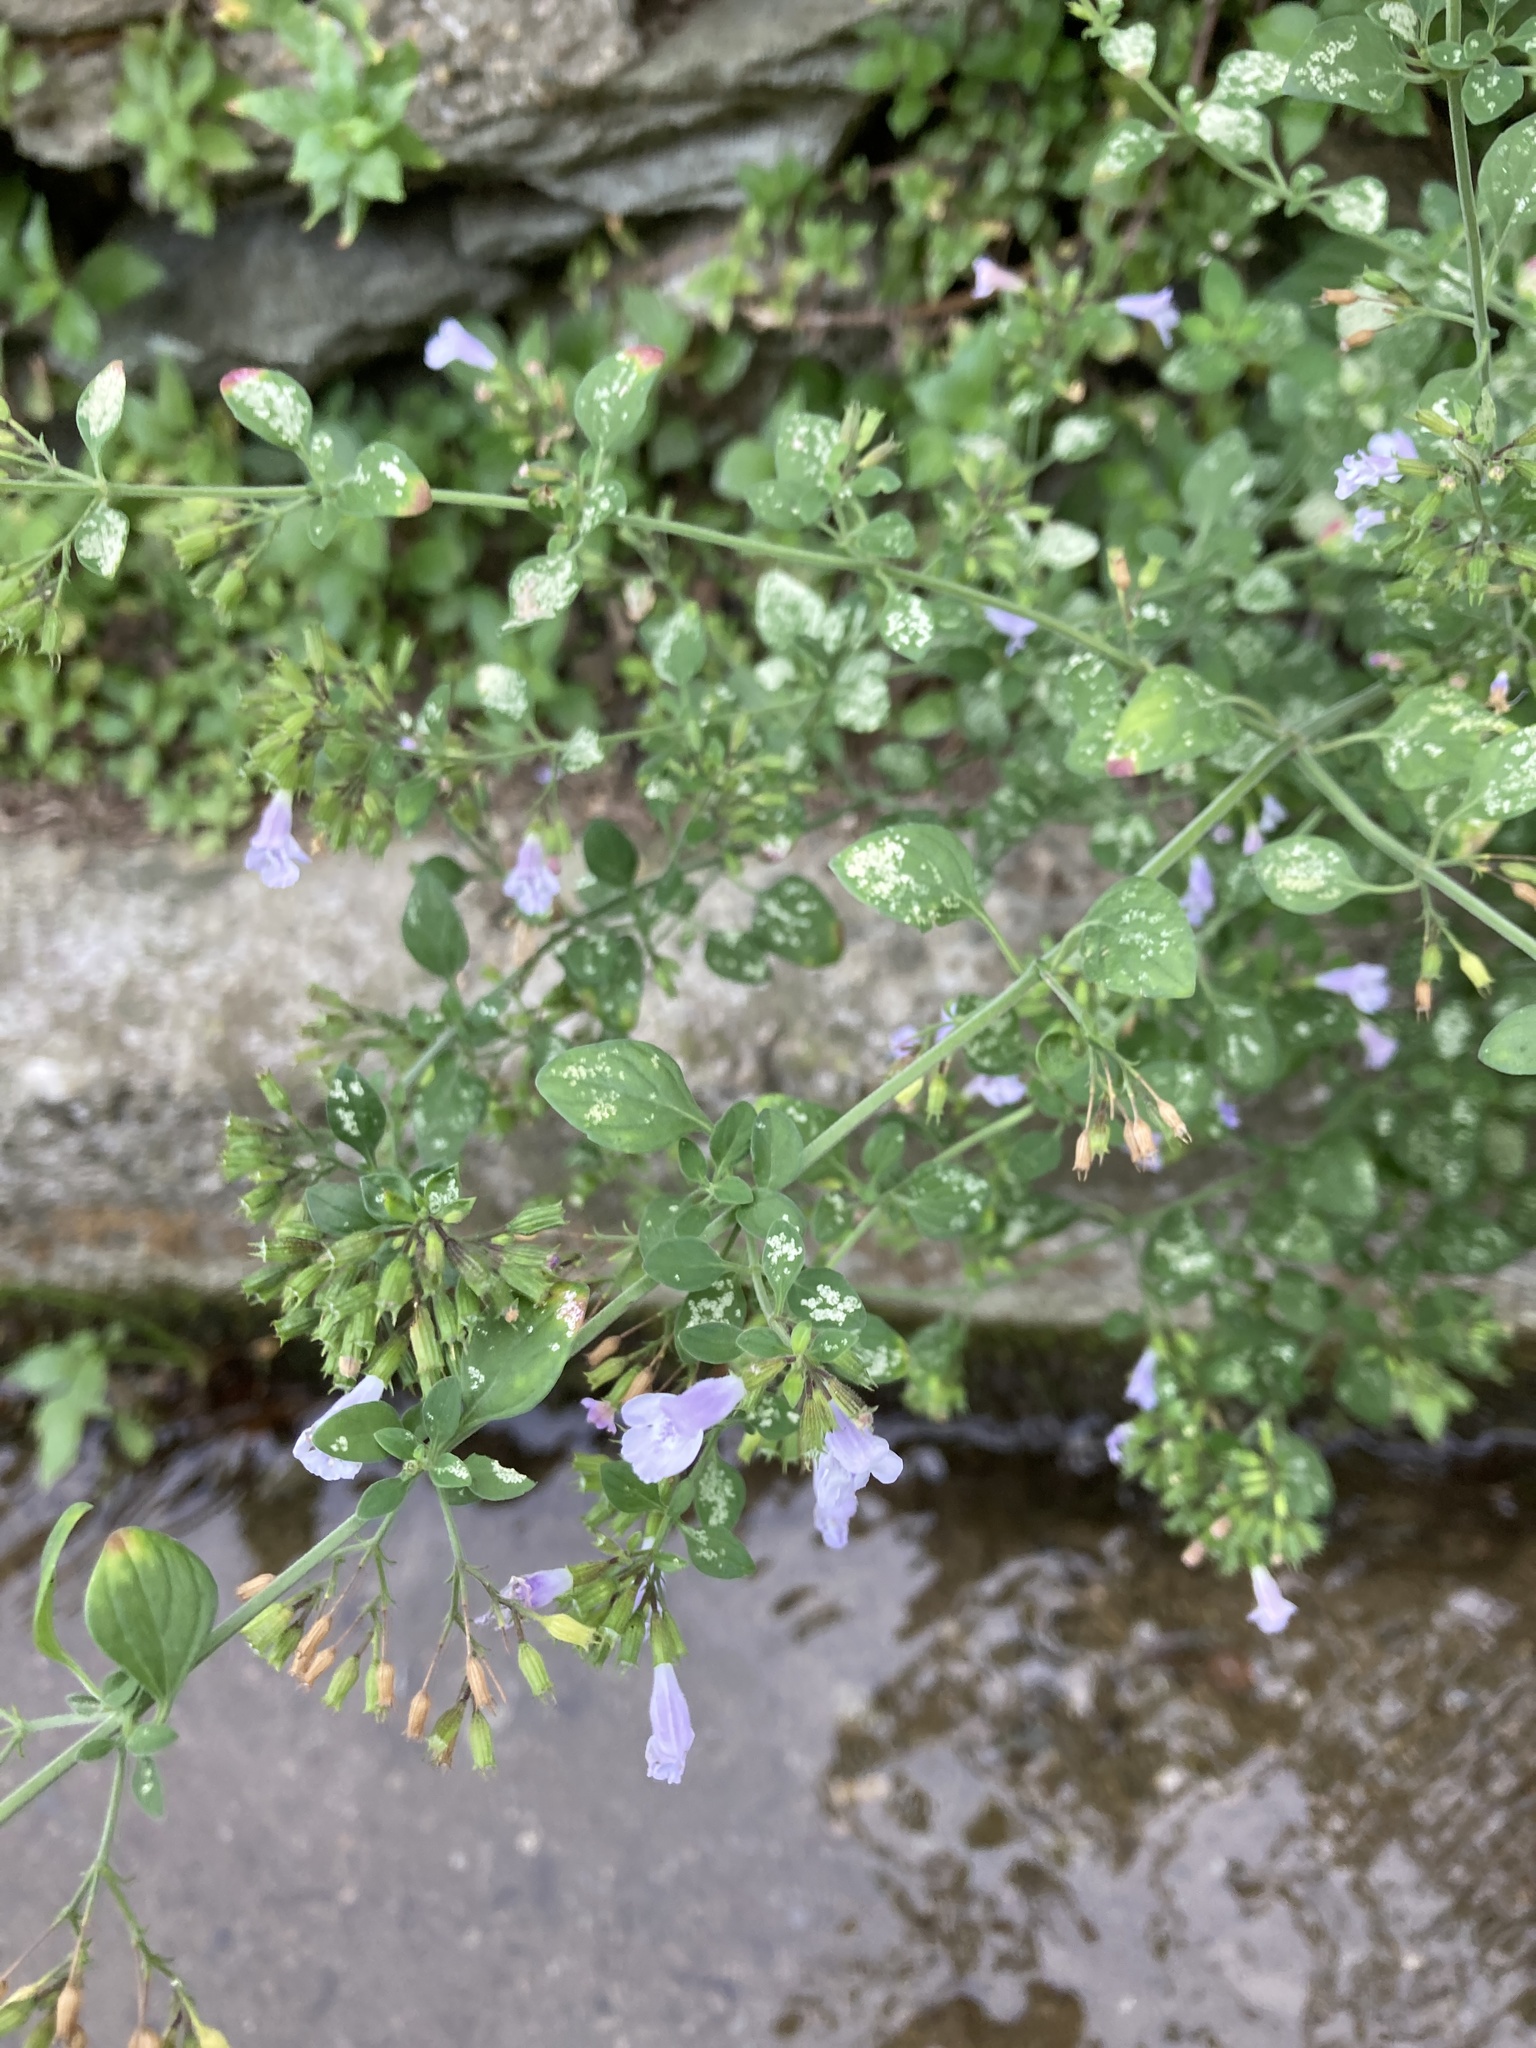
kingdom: Plantae
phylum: Tracheophyta
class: Magnoliopsida
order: Lamiales
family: Lamiaceae
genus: Clinopodium
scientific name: Clinopodium nepeta
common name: Lesser calamint
